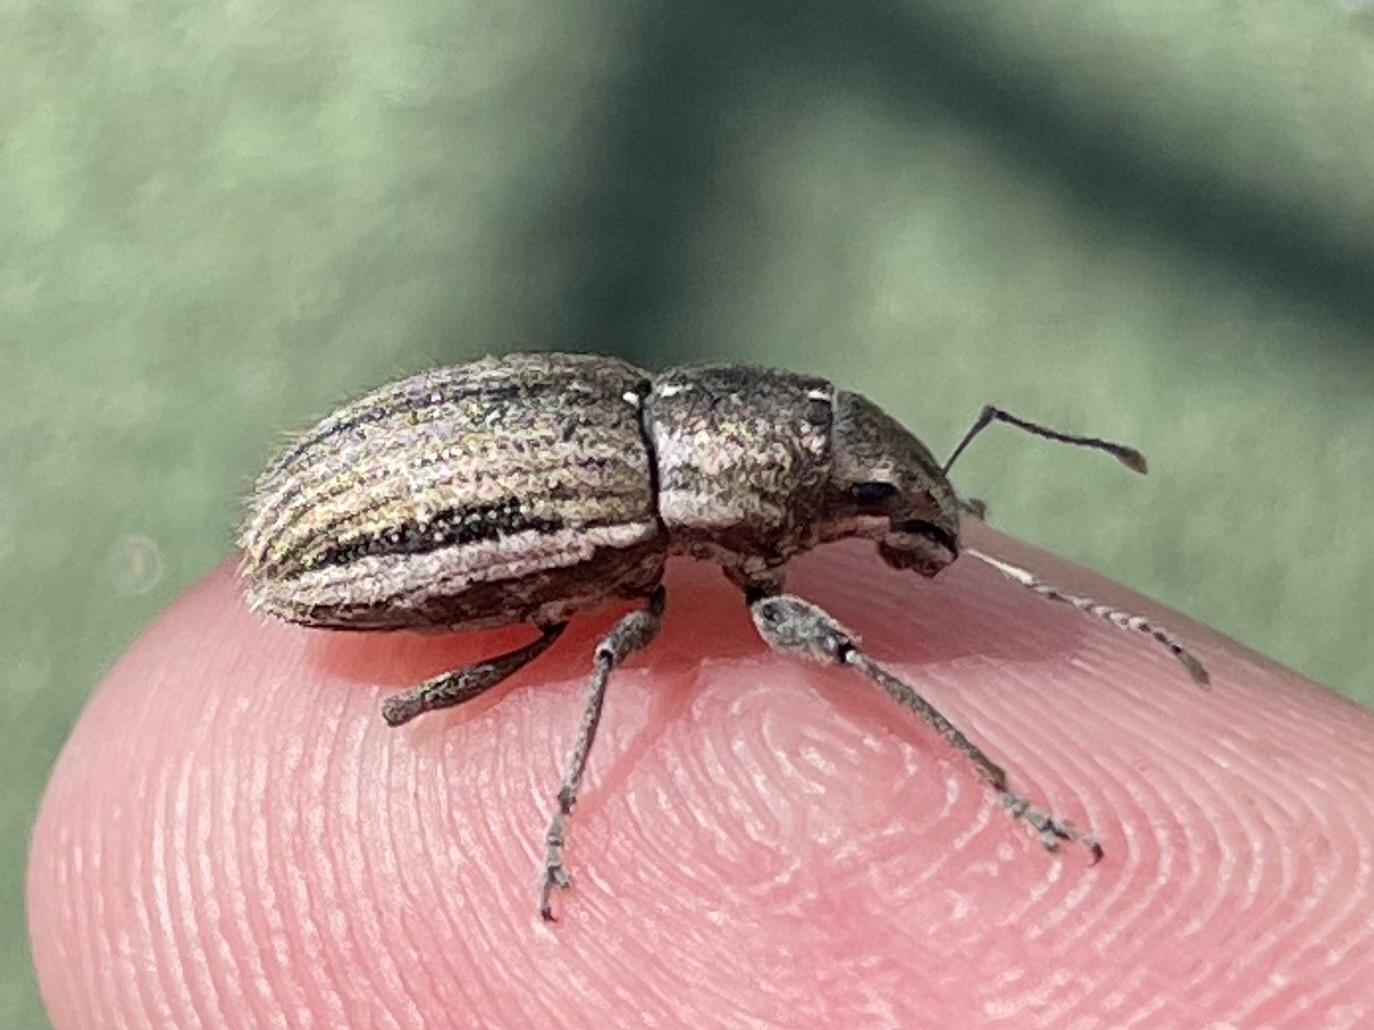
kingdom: Animalia
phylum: Arthropoda
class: Insecta
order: Coleoptera
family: Curculionidae
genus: Naupactus
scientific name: Naupactus leucoloma
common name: Whitefringed beetle
